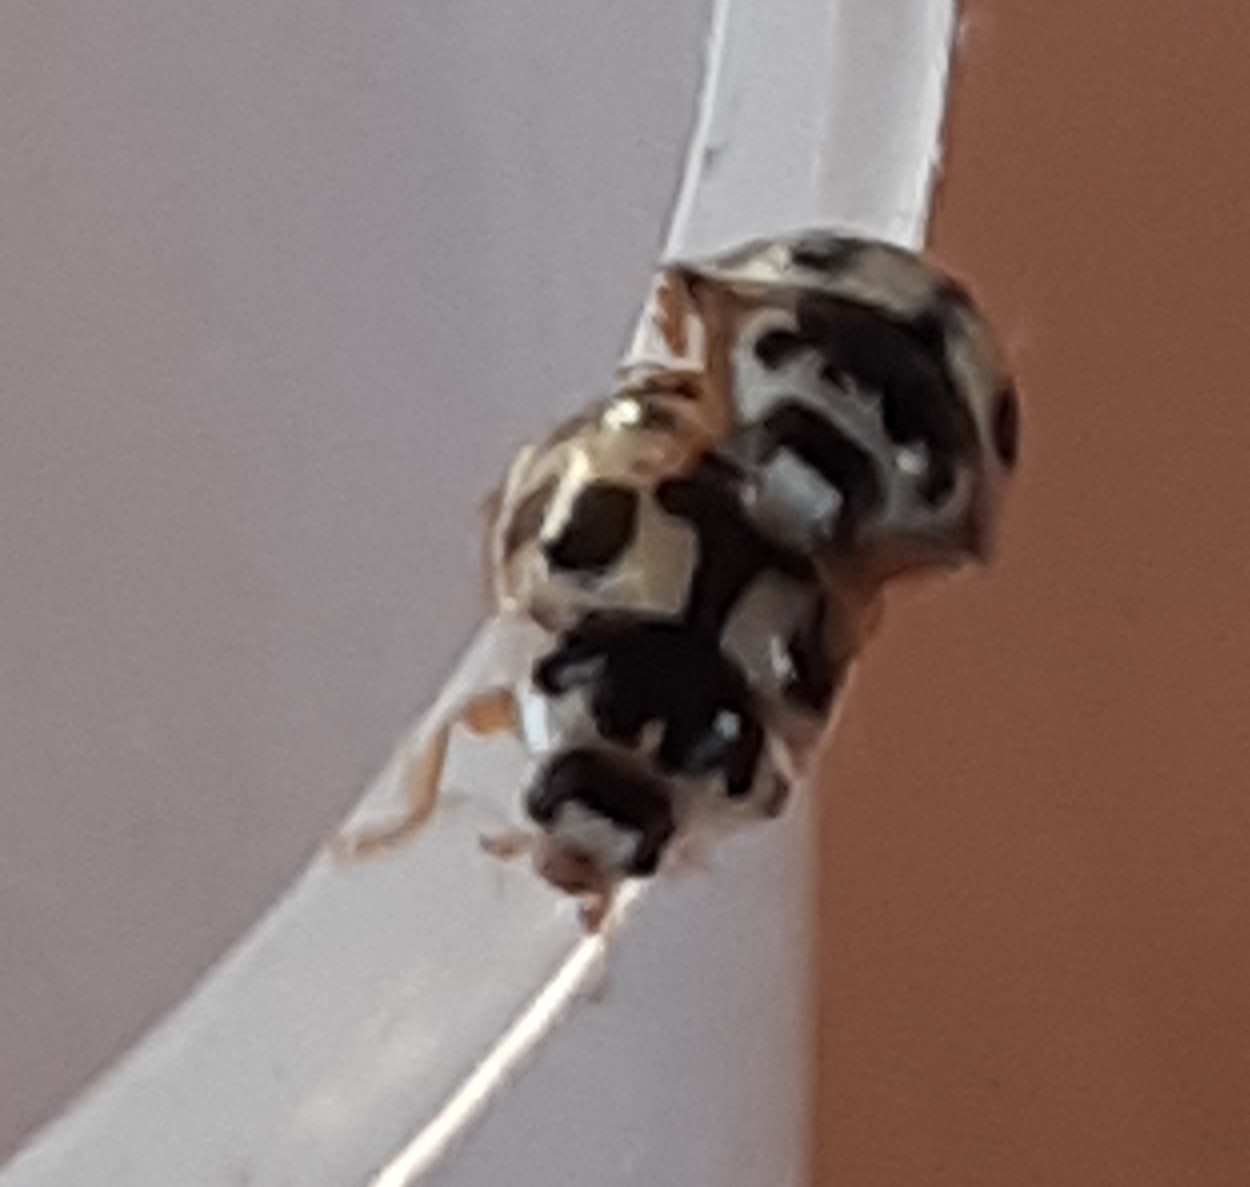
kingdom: Animalia
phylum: Arthropoda
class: Insecta
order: Coleoptera
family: Coccinellidae
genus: Propylaea
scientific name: Propylaea quatuordecimpunctata
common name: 14-spotted ladybird beetle
